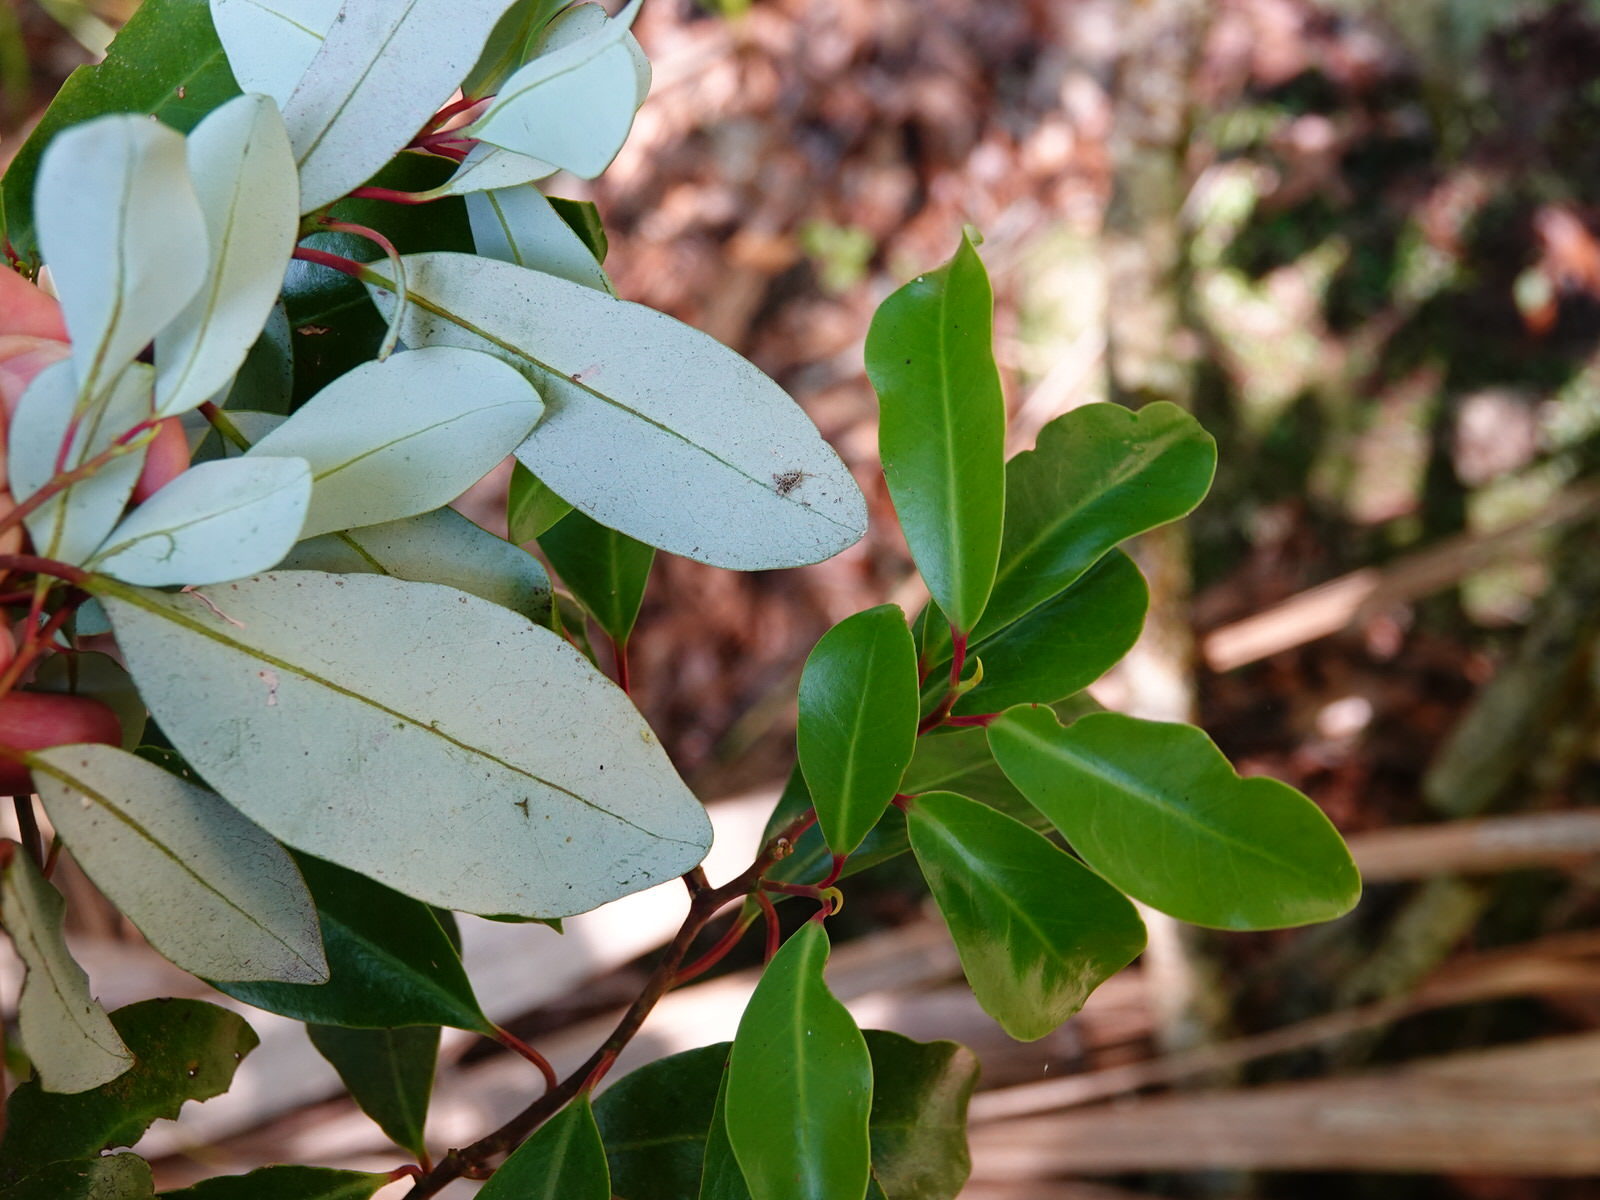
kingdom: Plantae
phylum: Tracheophyta
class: Magnoliopsida
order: Canellales
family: Winteraceae
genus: Pseudowintera
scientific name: Pseudowintera axillaris
